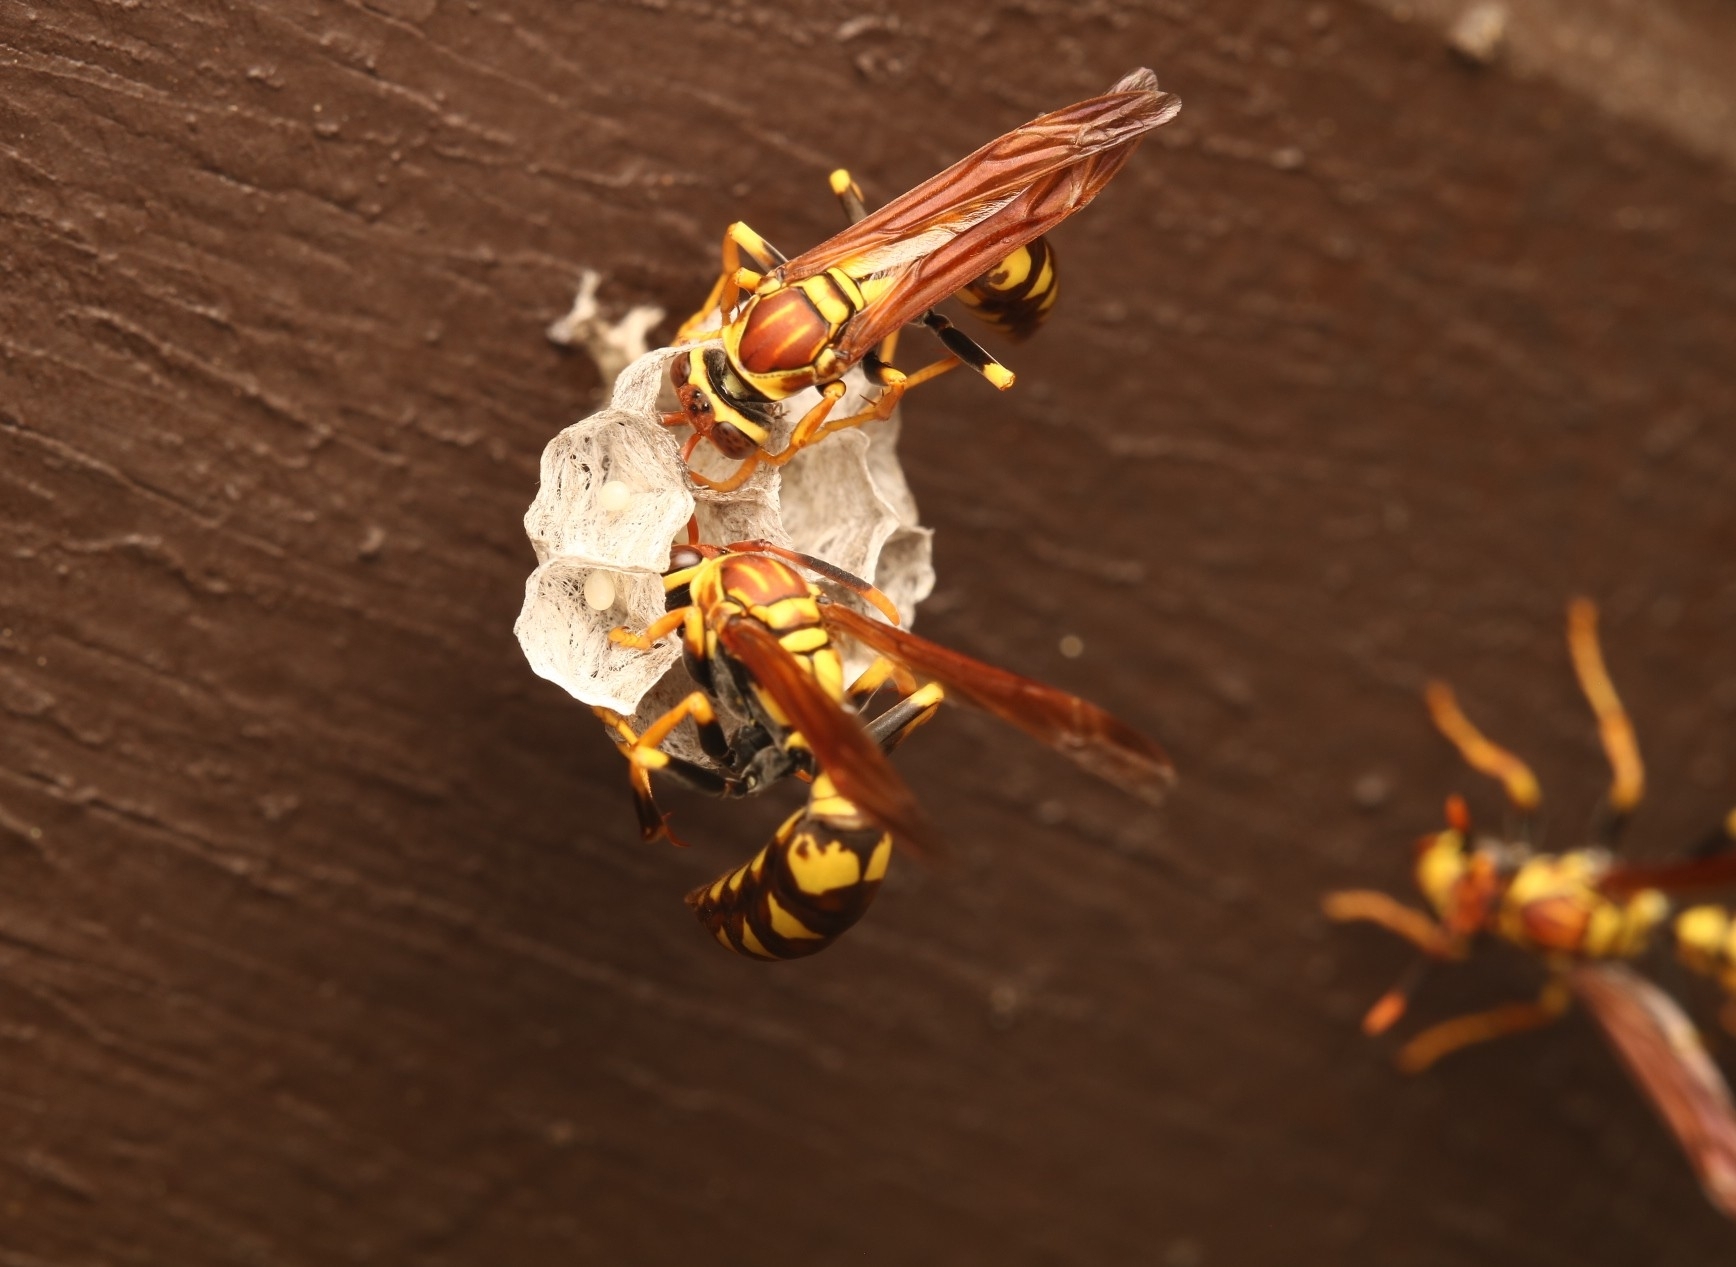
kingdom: Animalia
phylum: Arthropoda
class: Insecta
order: Hymenoptera
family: Eumenidae
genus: Polistes
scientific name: Polistes myersi
